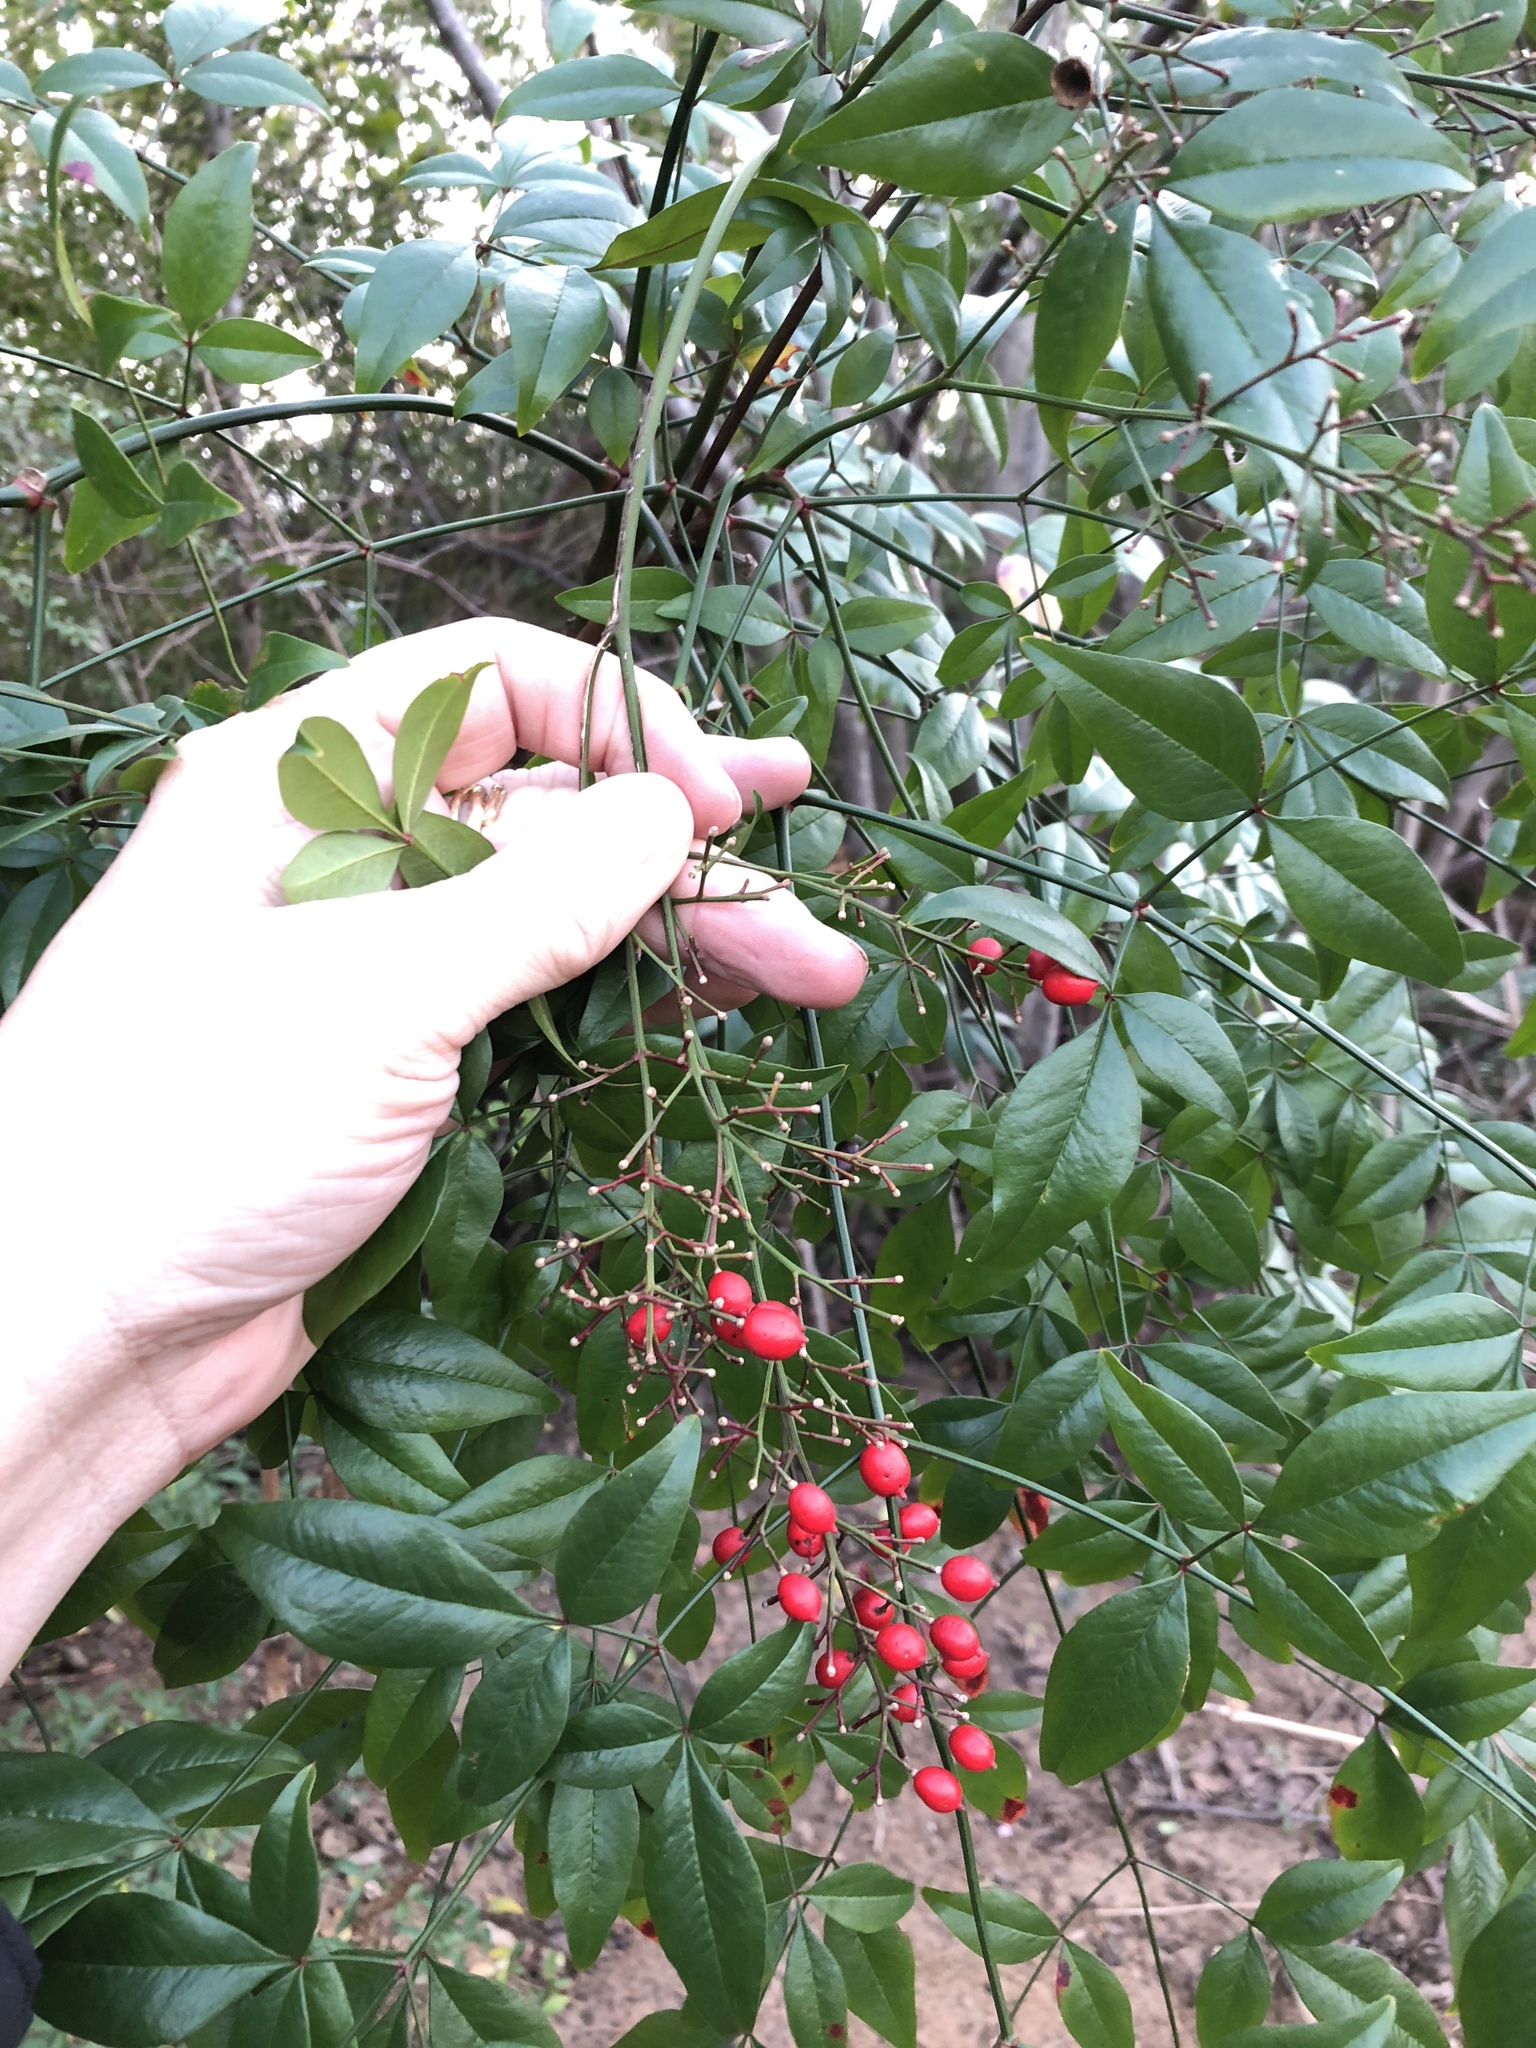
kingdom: Plantae
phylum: Tracheophyta
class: Magnoliopsida
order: Ranunculales
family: Berberidaceae
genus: Nandina
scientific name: Nandina domestica
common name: Sacred bamboo
